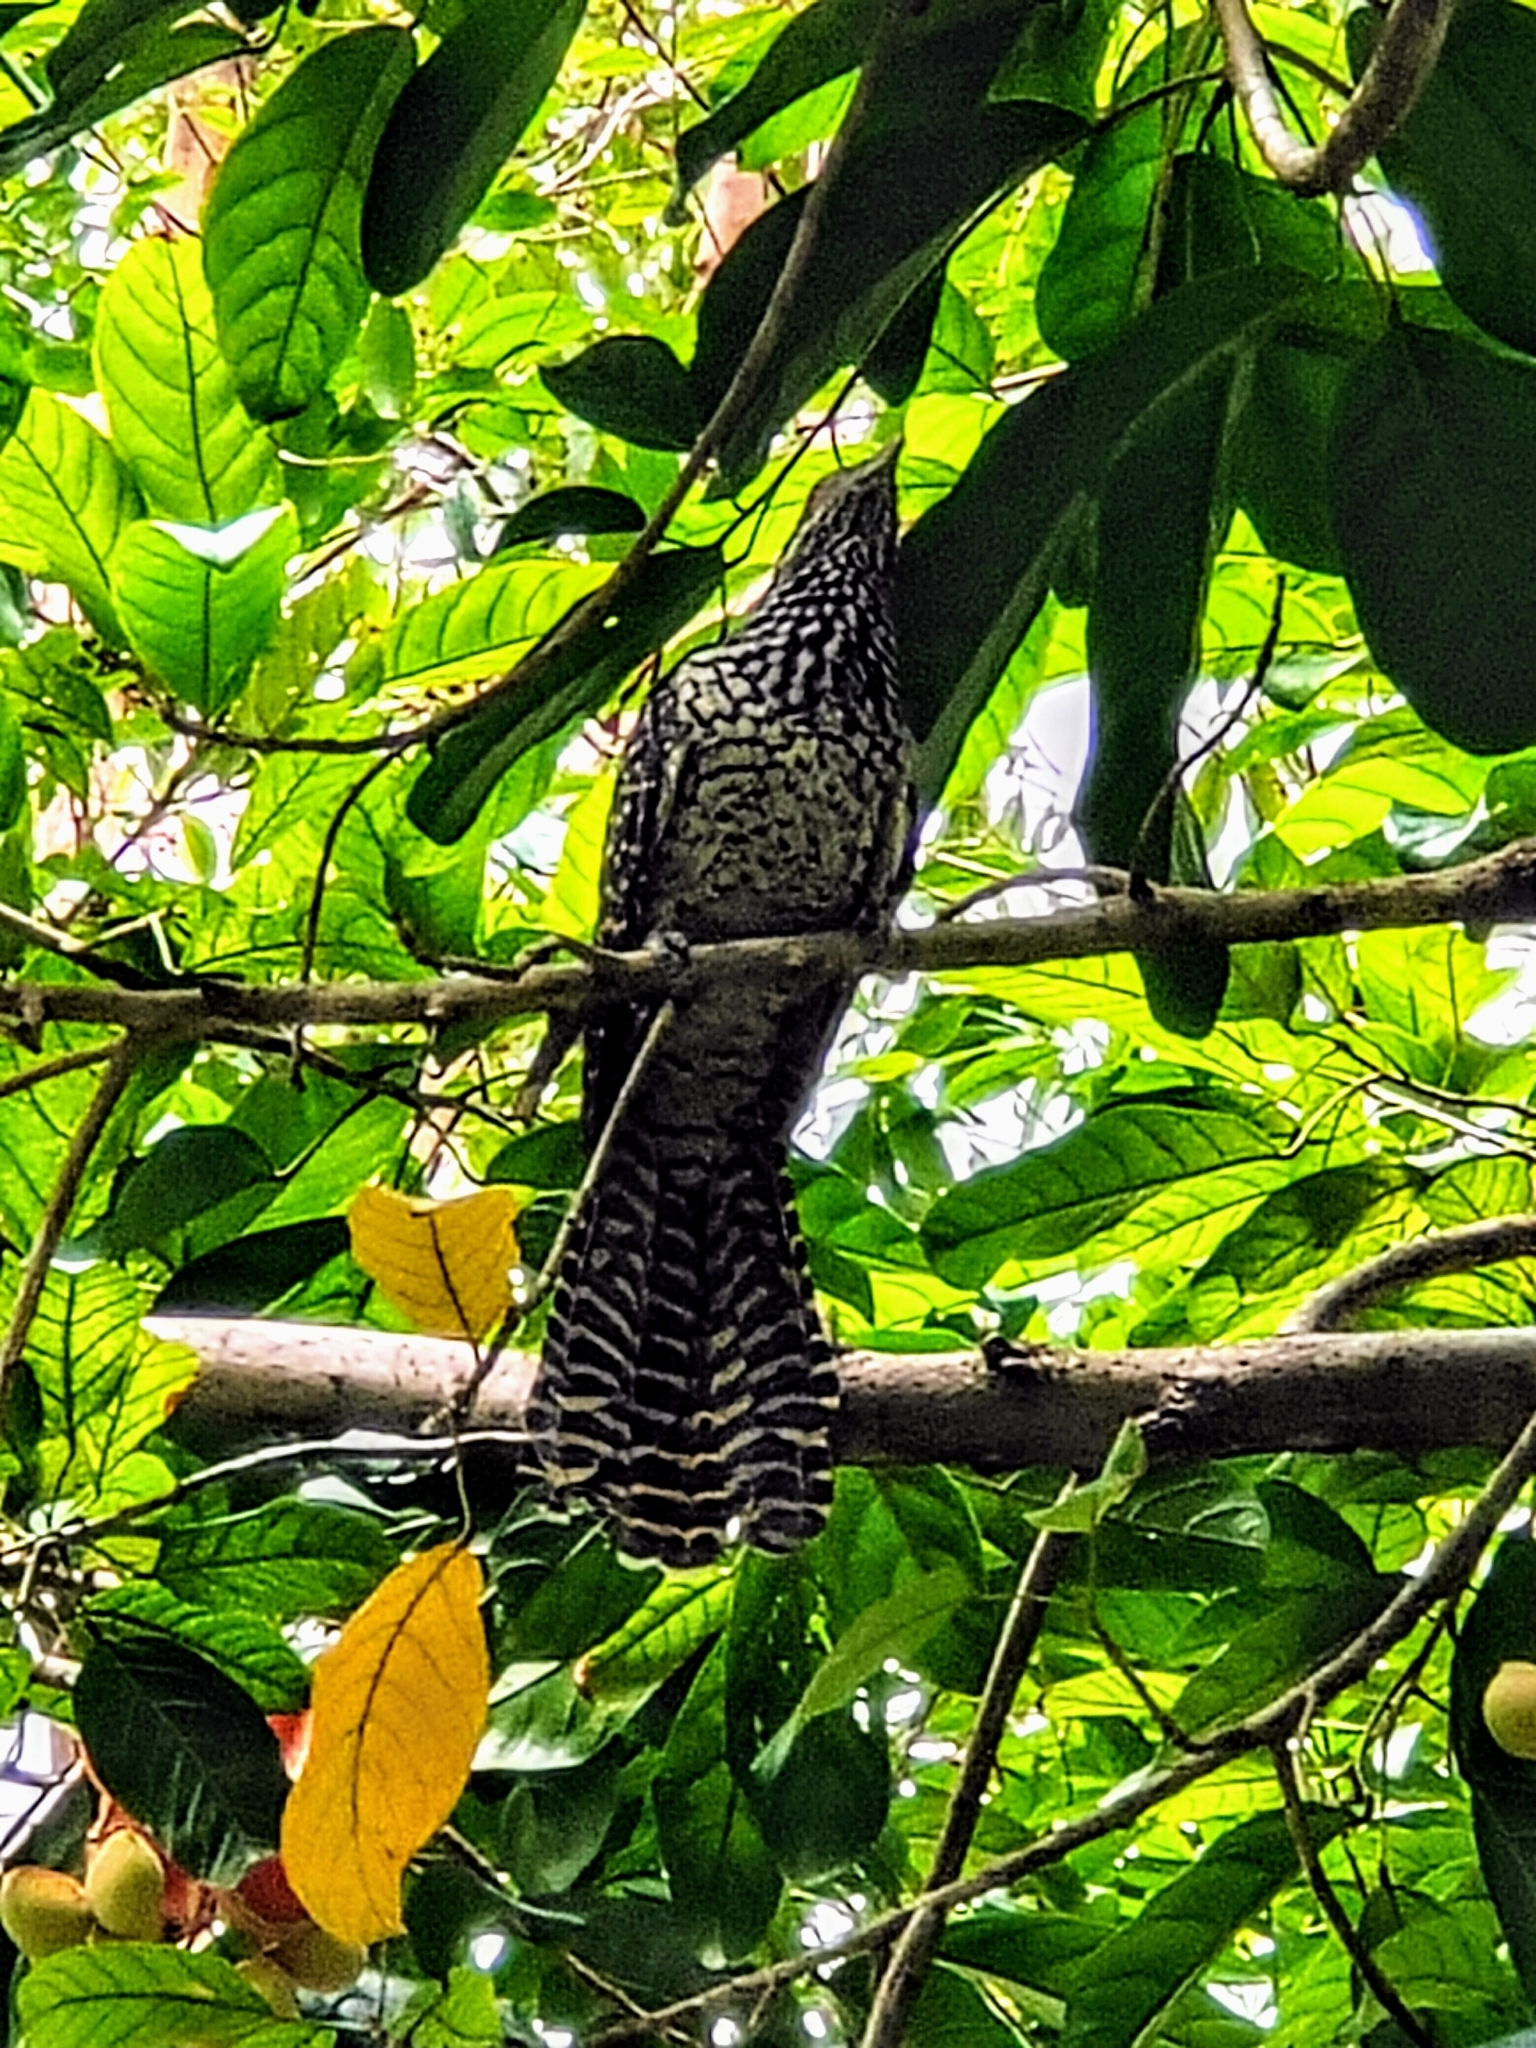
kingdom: Animalia
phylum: Chordata
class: Aves
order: Cuculiformes
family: Cuculidae
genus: Eudynamys
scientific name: Eudynamys scolopaceus
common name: Asian koel
